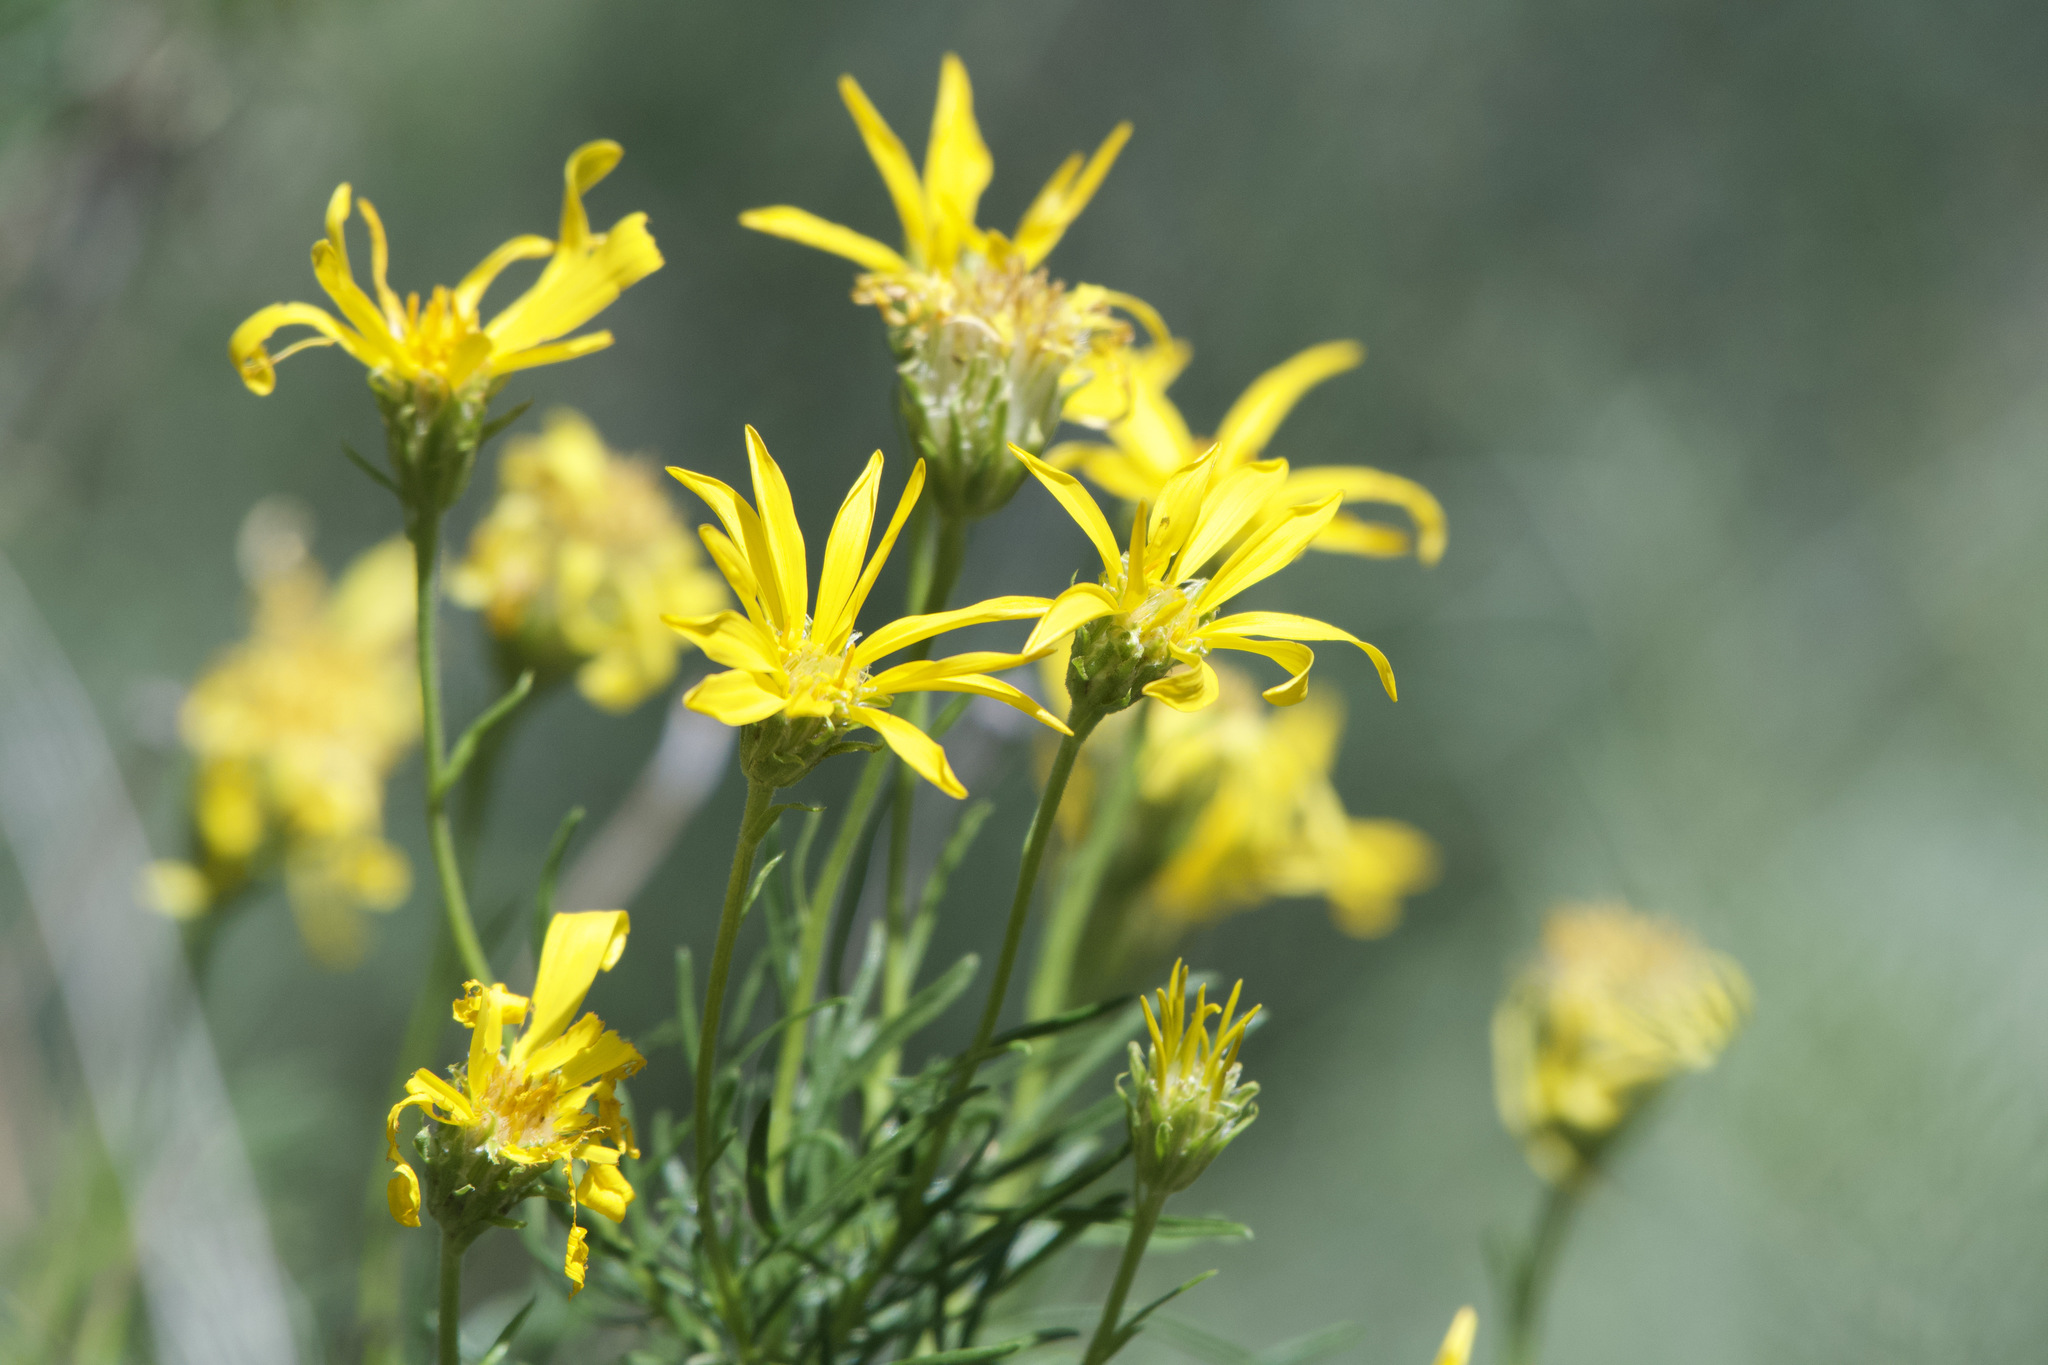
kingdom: Plantae
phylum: Tracheophyta
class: Magnoliopsida
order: Asterales
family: Asteraceae
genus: Ericameria
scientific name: Ericameria linearifolia
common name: Interior goldenbush
